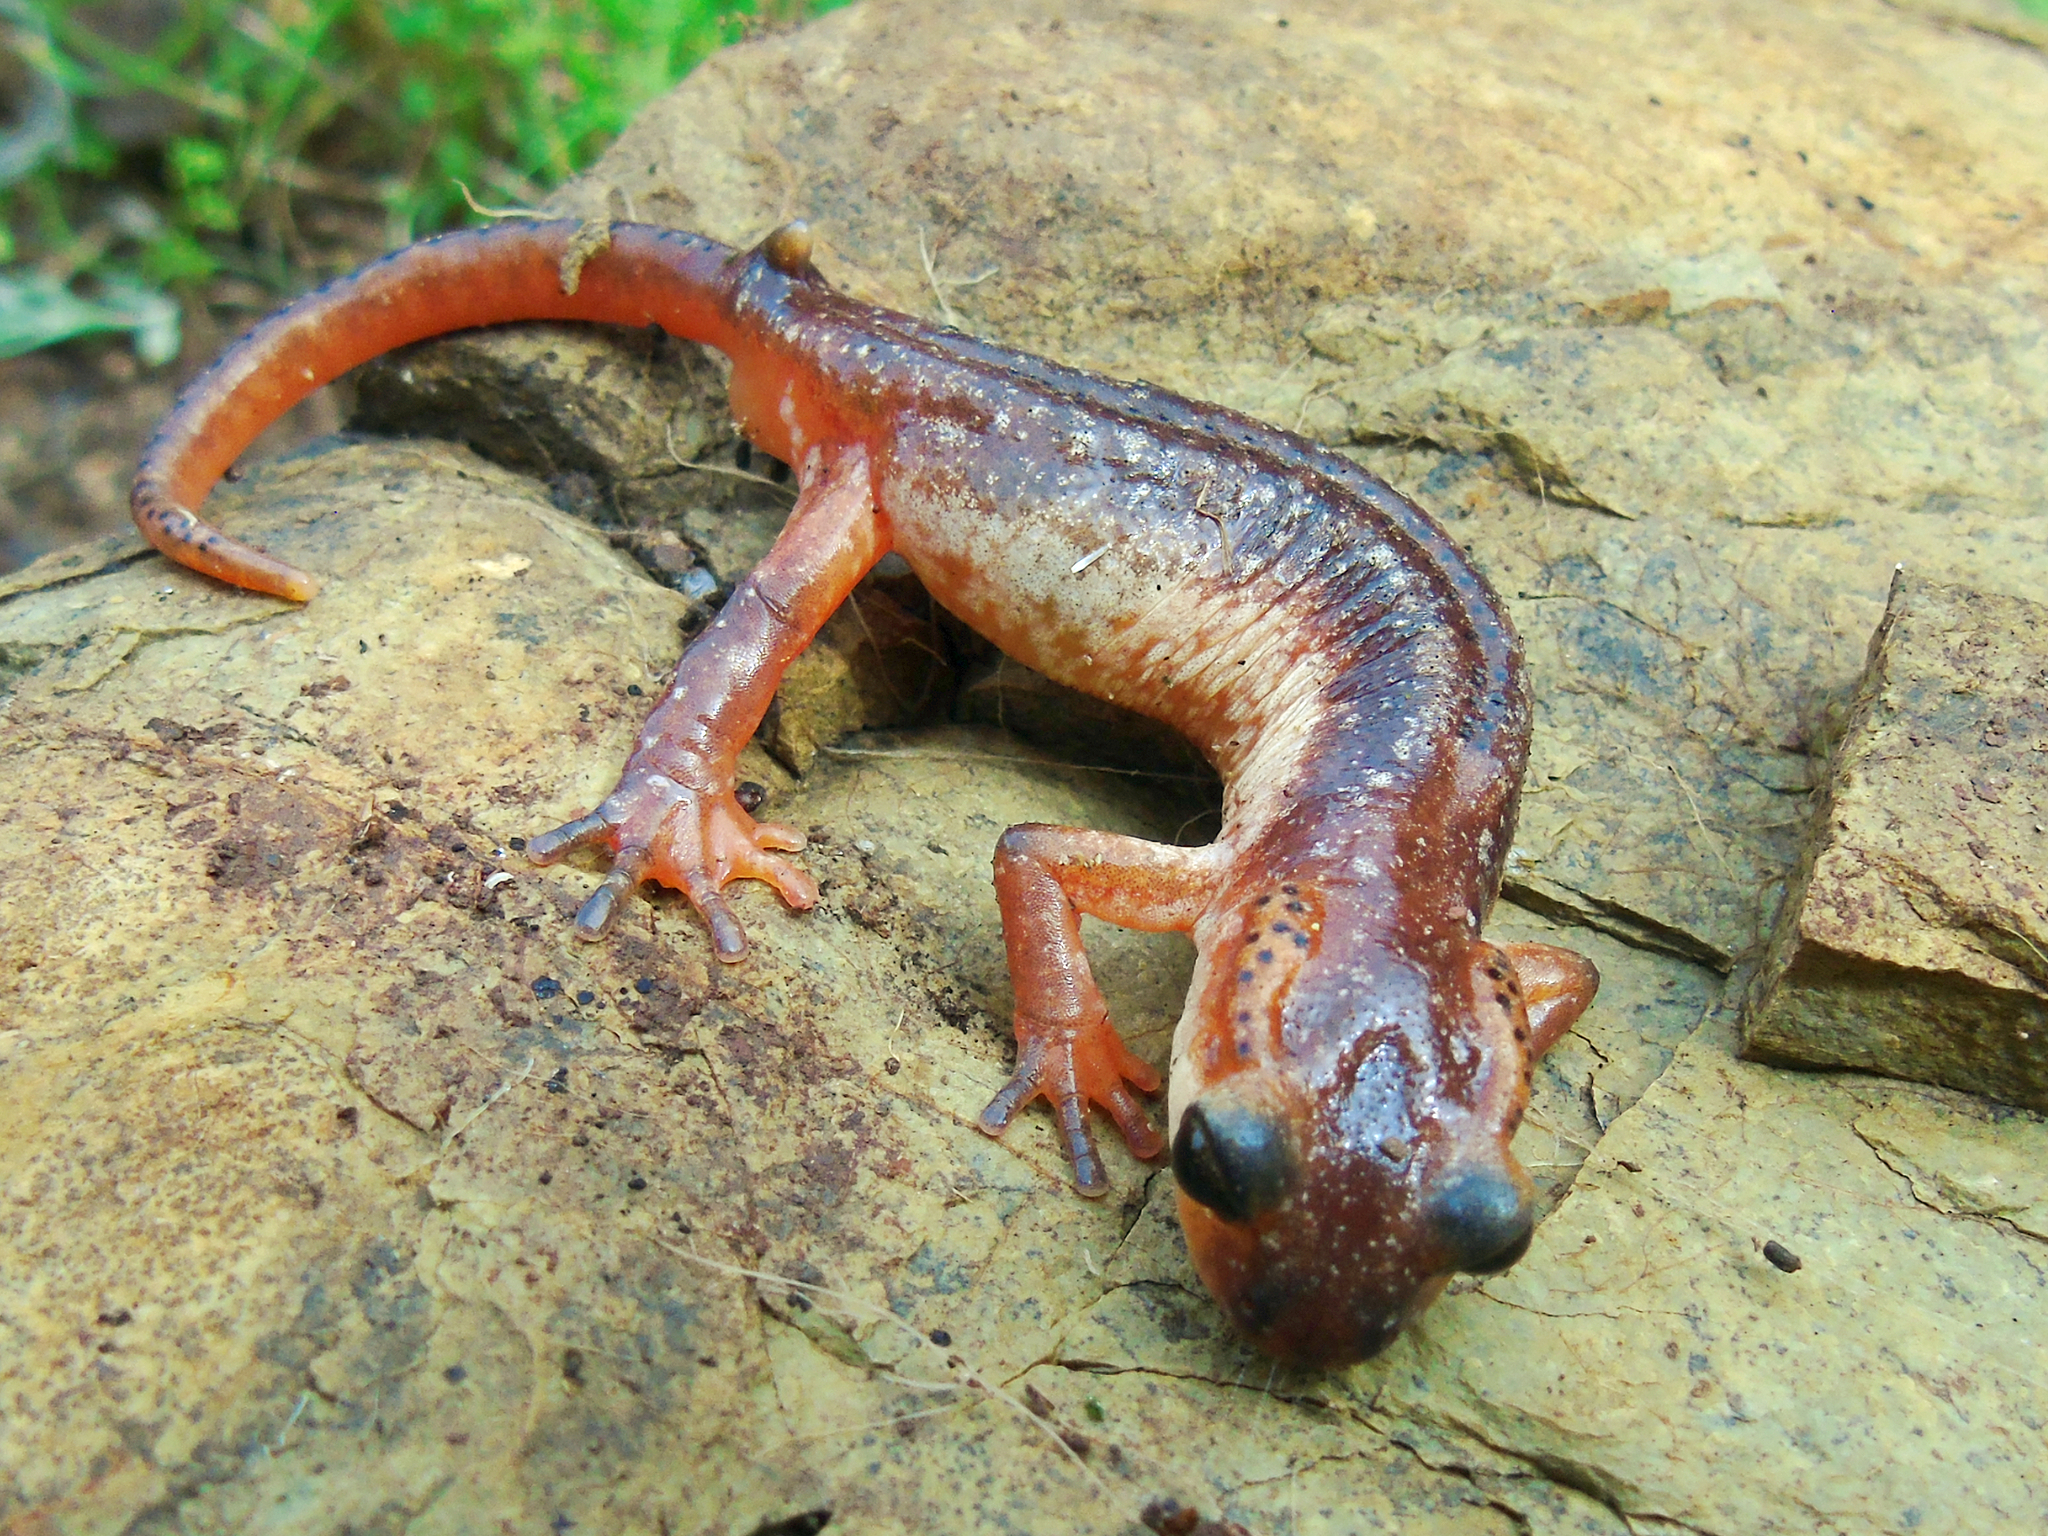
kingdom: Animalia
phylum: Chordata
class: Amphibia
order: Caudata
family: Salamandridae
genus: Lyciasalamandra
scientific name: Lyciasalamandra billae
